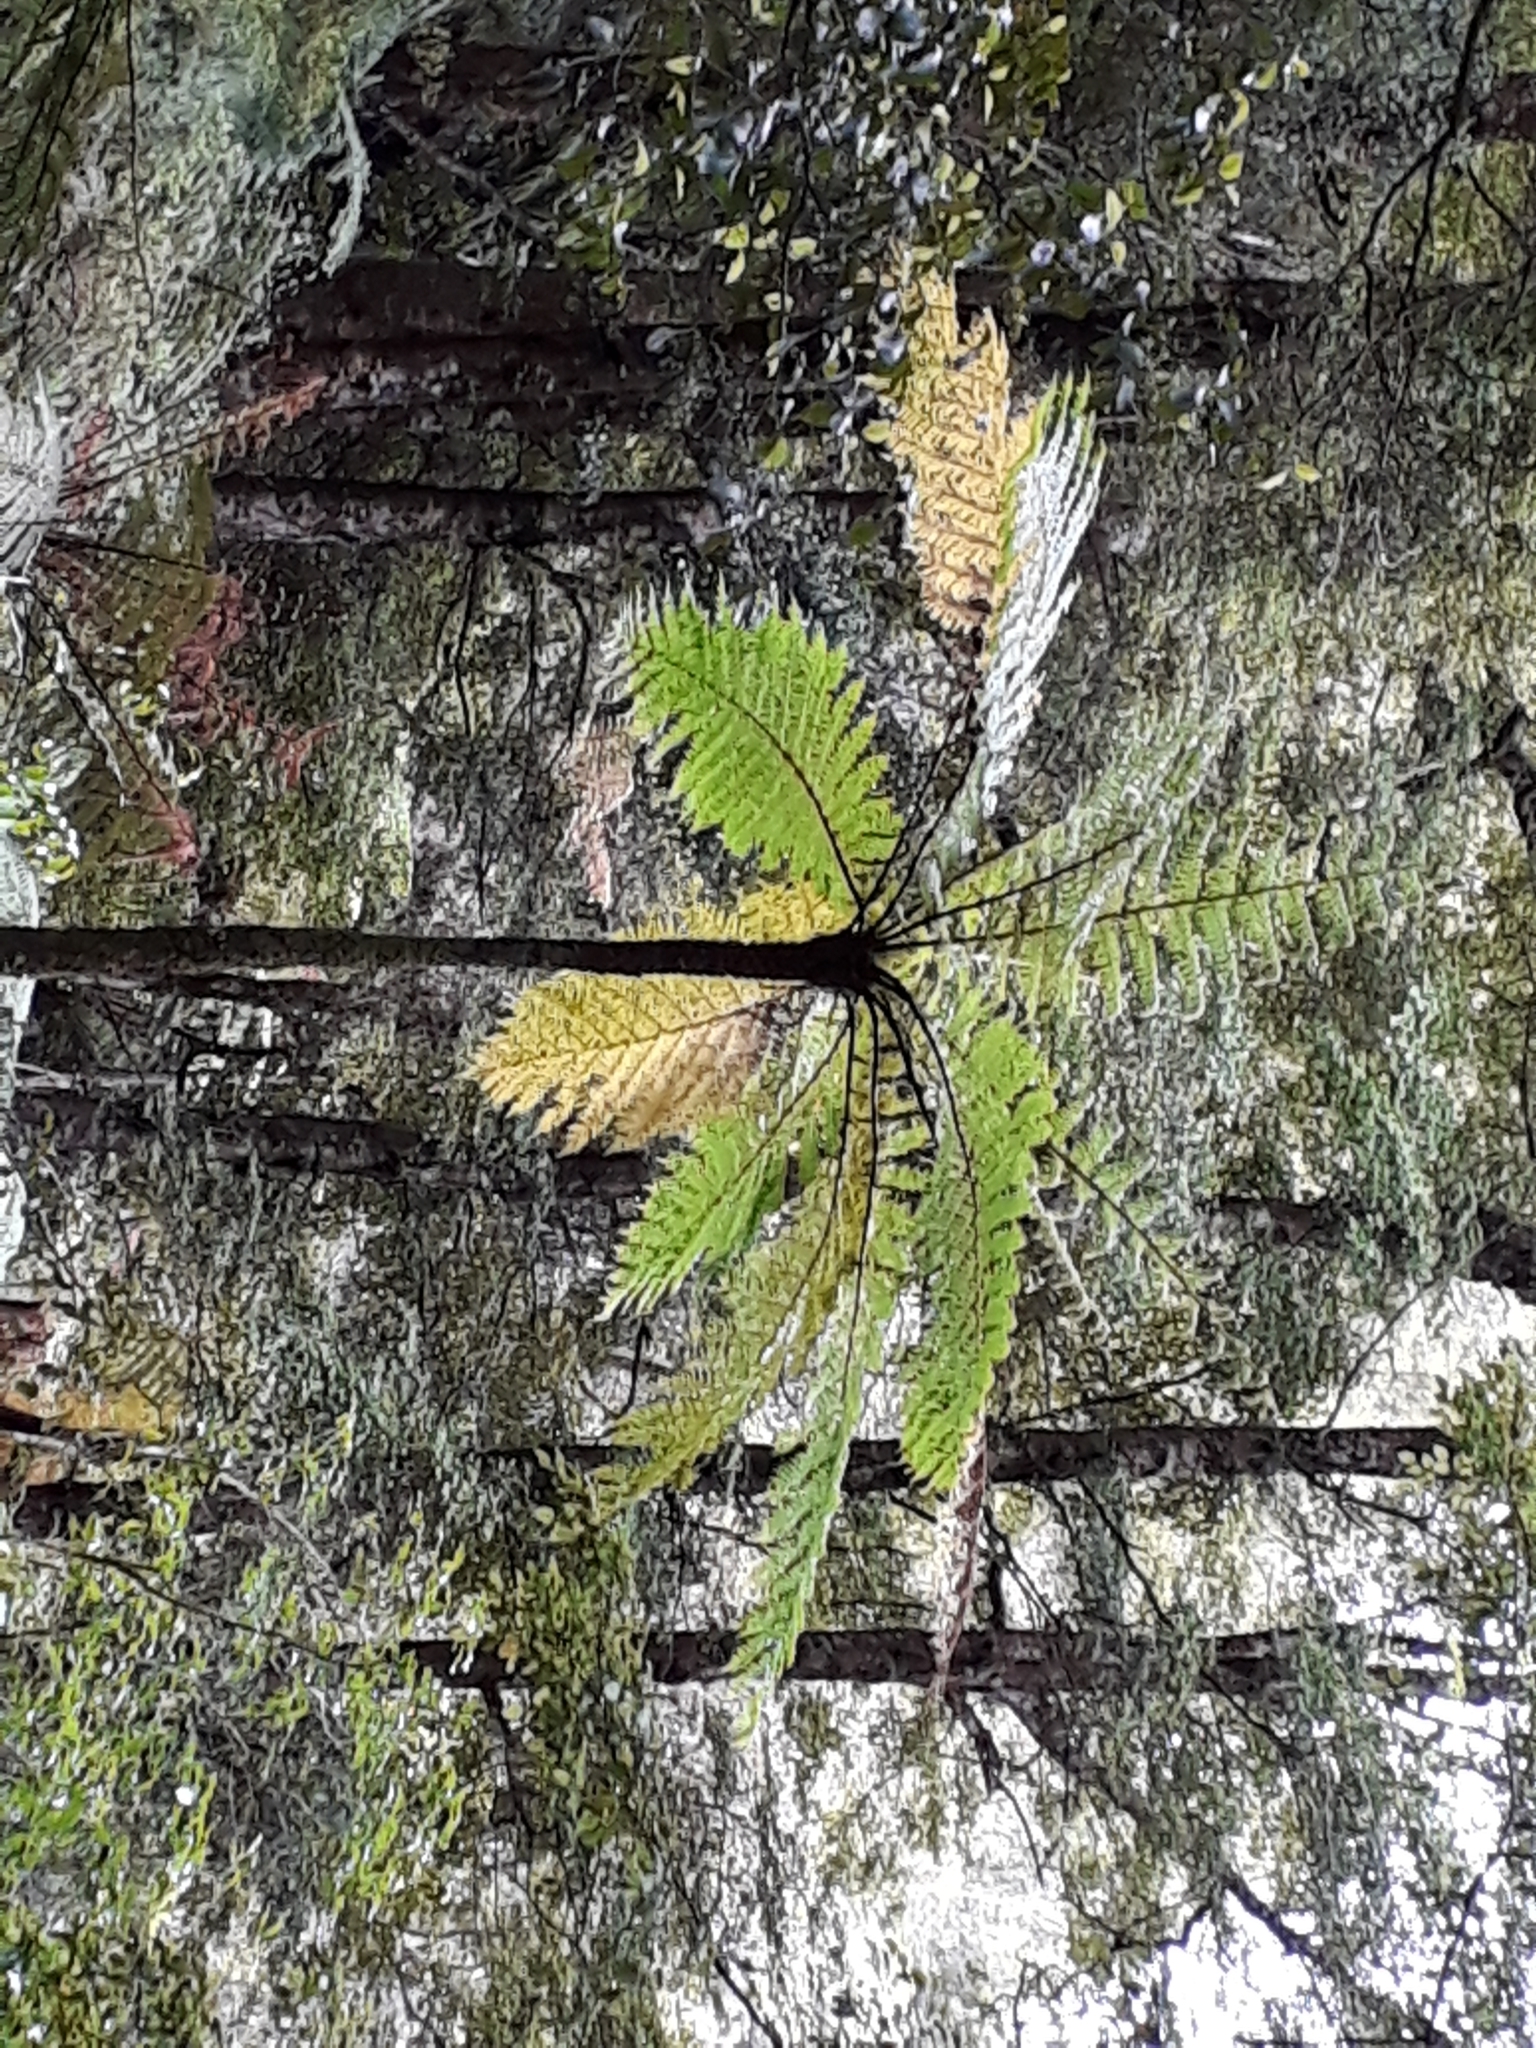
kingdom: Plantae
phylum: Tracheophyta
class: Polypodiopsida
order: Cyatheales
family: Cyatheaceae
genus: Cyathea
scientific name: Cyathea cunninghamii
